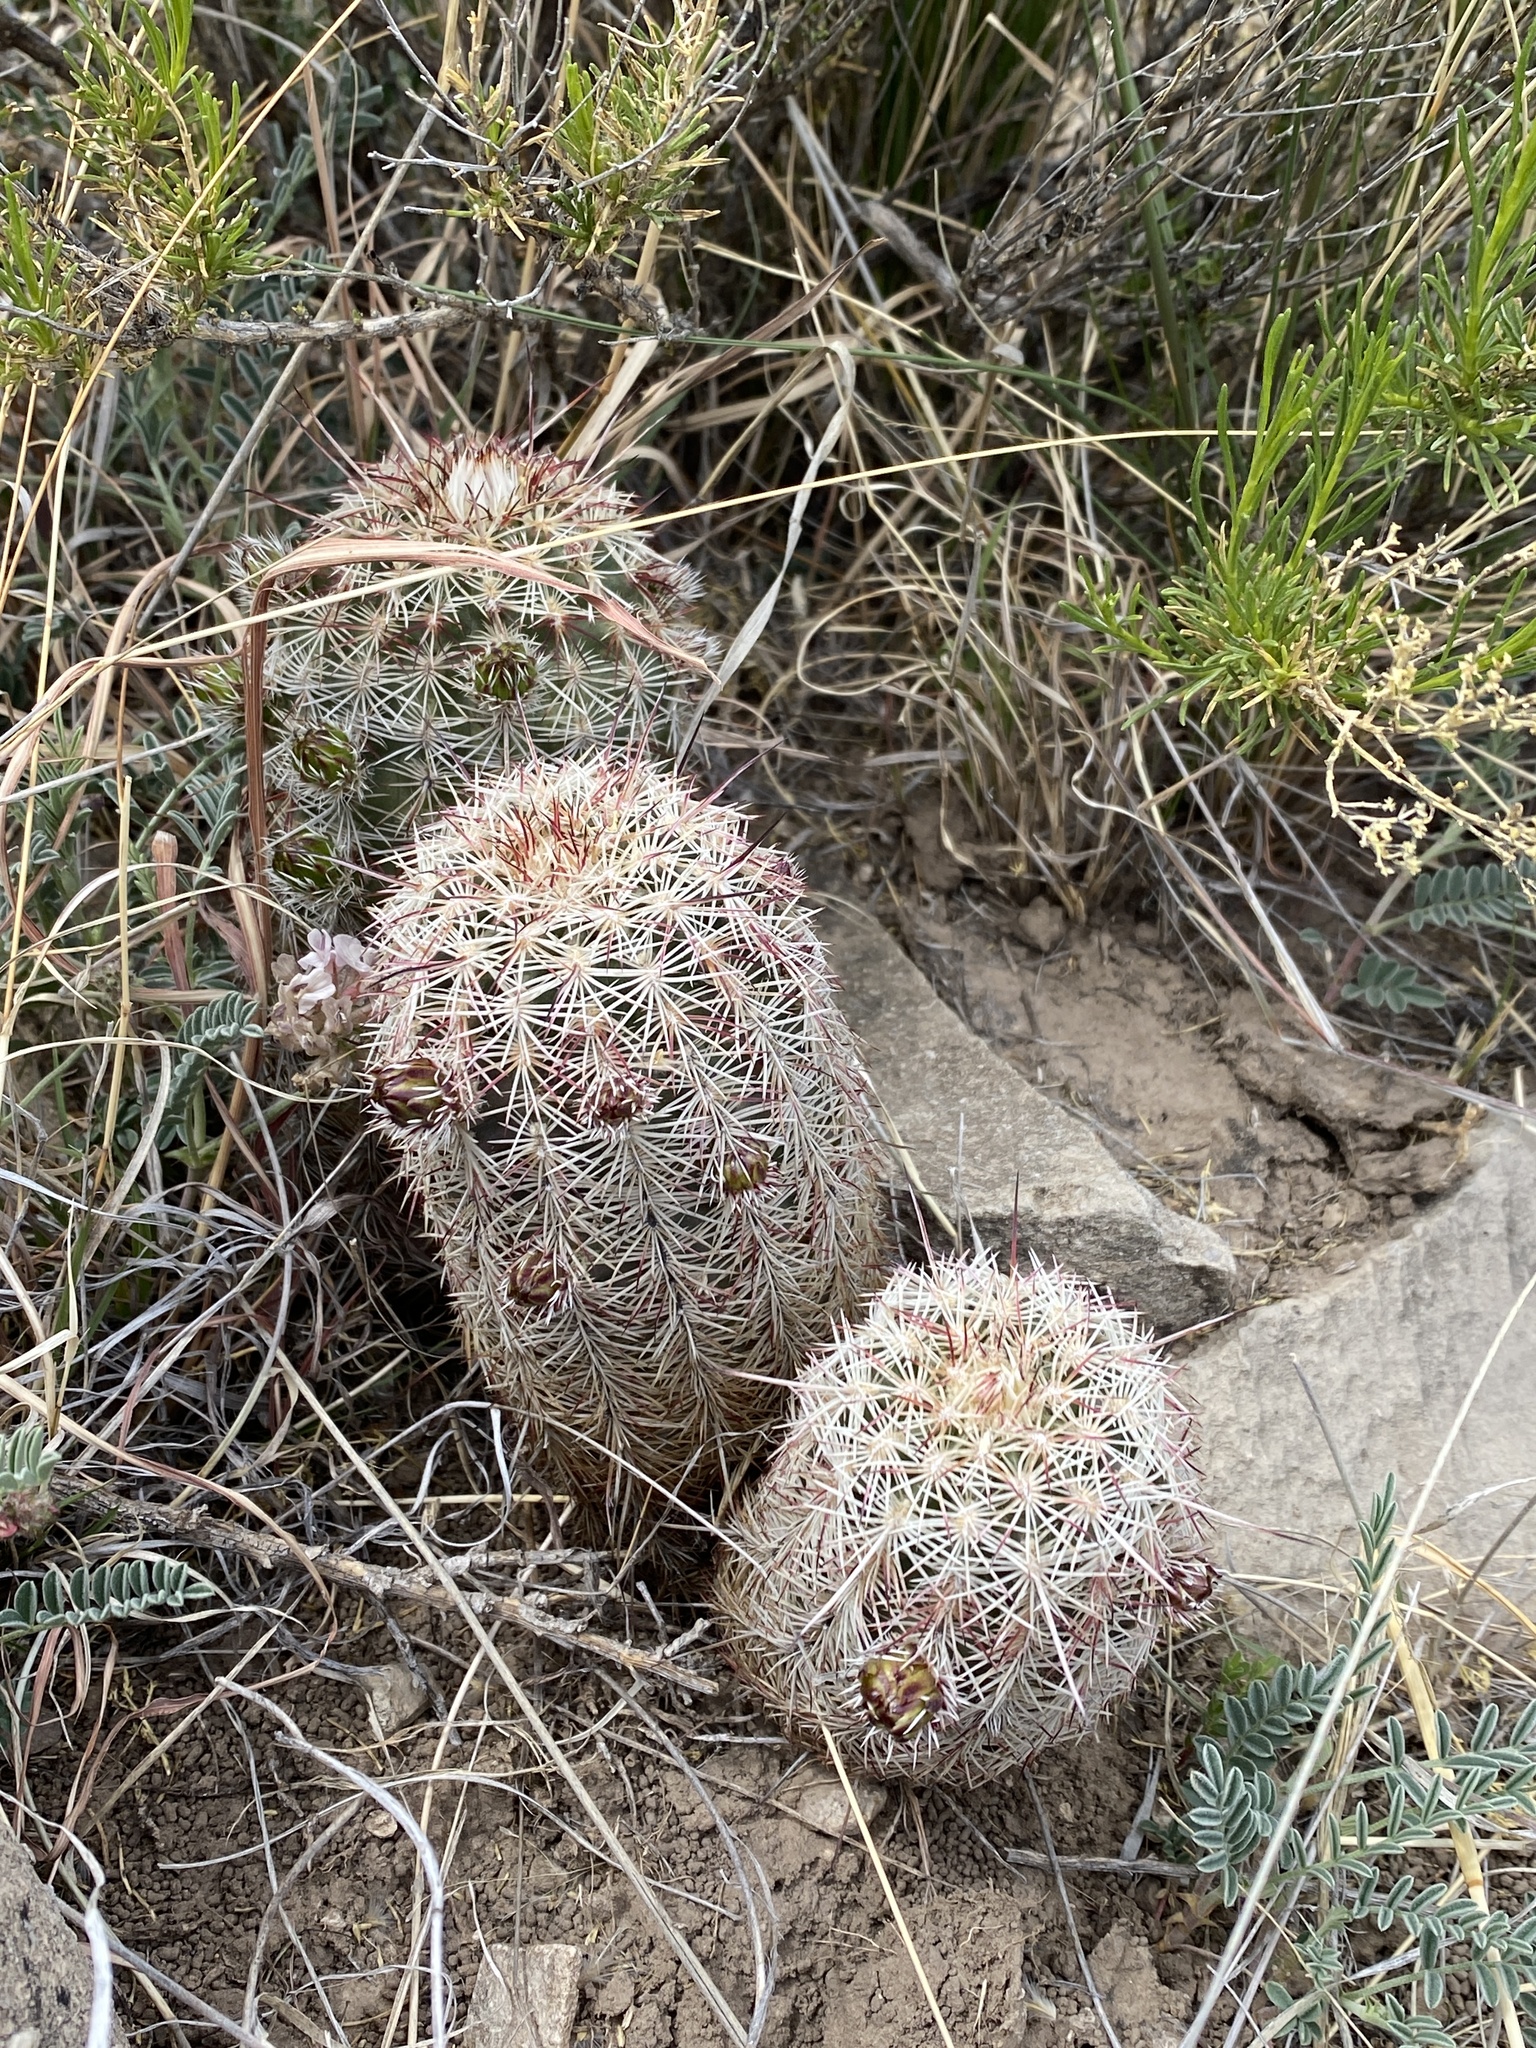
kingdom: Plantae
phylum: Tracheophyta
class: Magnoliopsida
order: Caryophyllales
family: Cactaceae
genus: Echinocereus
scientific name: Echinocereus viridiflorus
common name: Nylon hedgehog cactus
